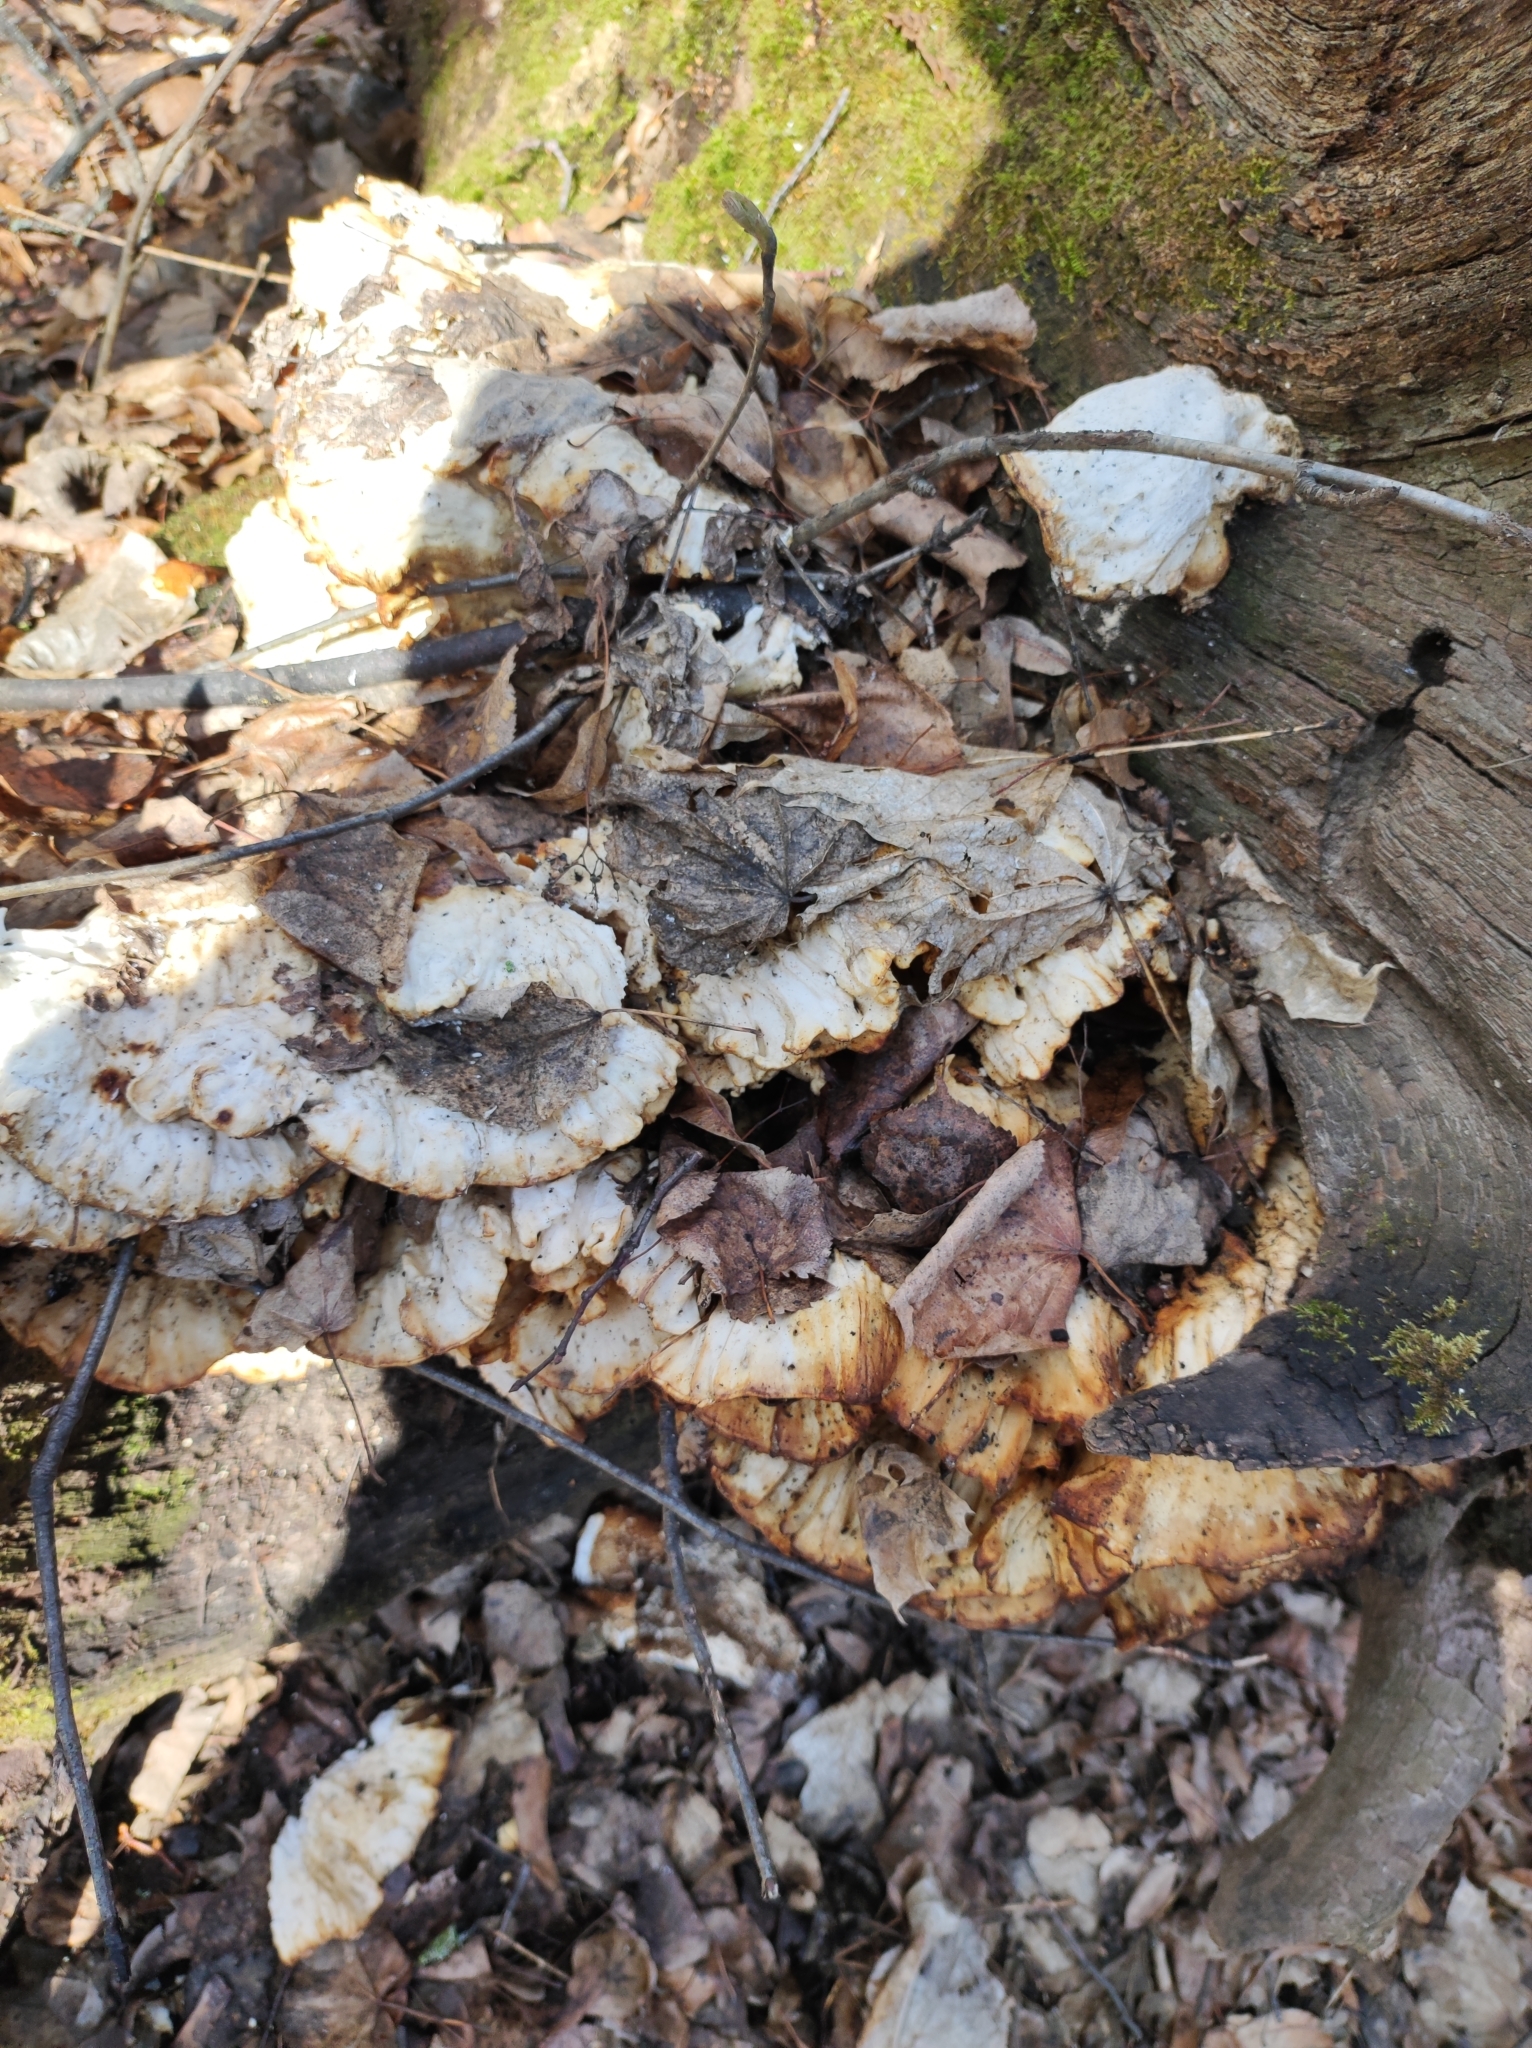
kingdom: Fungi
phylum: Basidiomycota
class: Agaricomycetes
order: Polyporales
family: Laetiporaceae
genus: Laetiporus
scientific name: Laetiporus sulphureus
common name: Chicken of the woods
